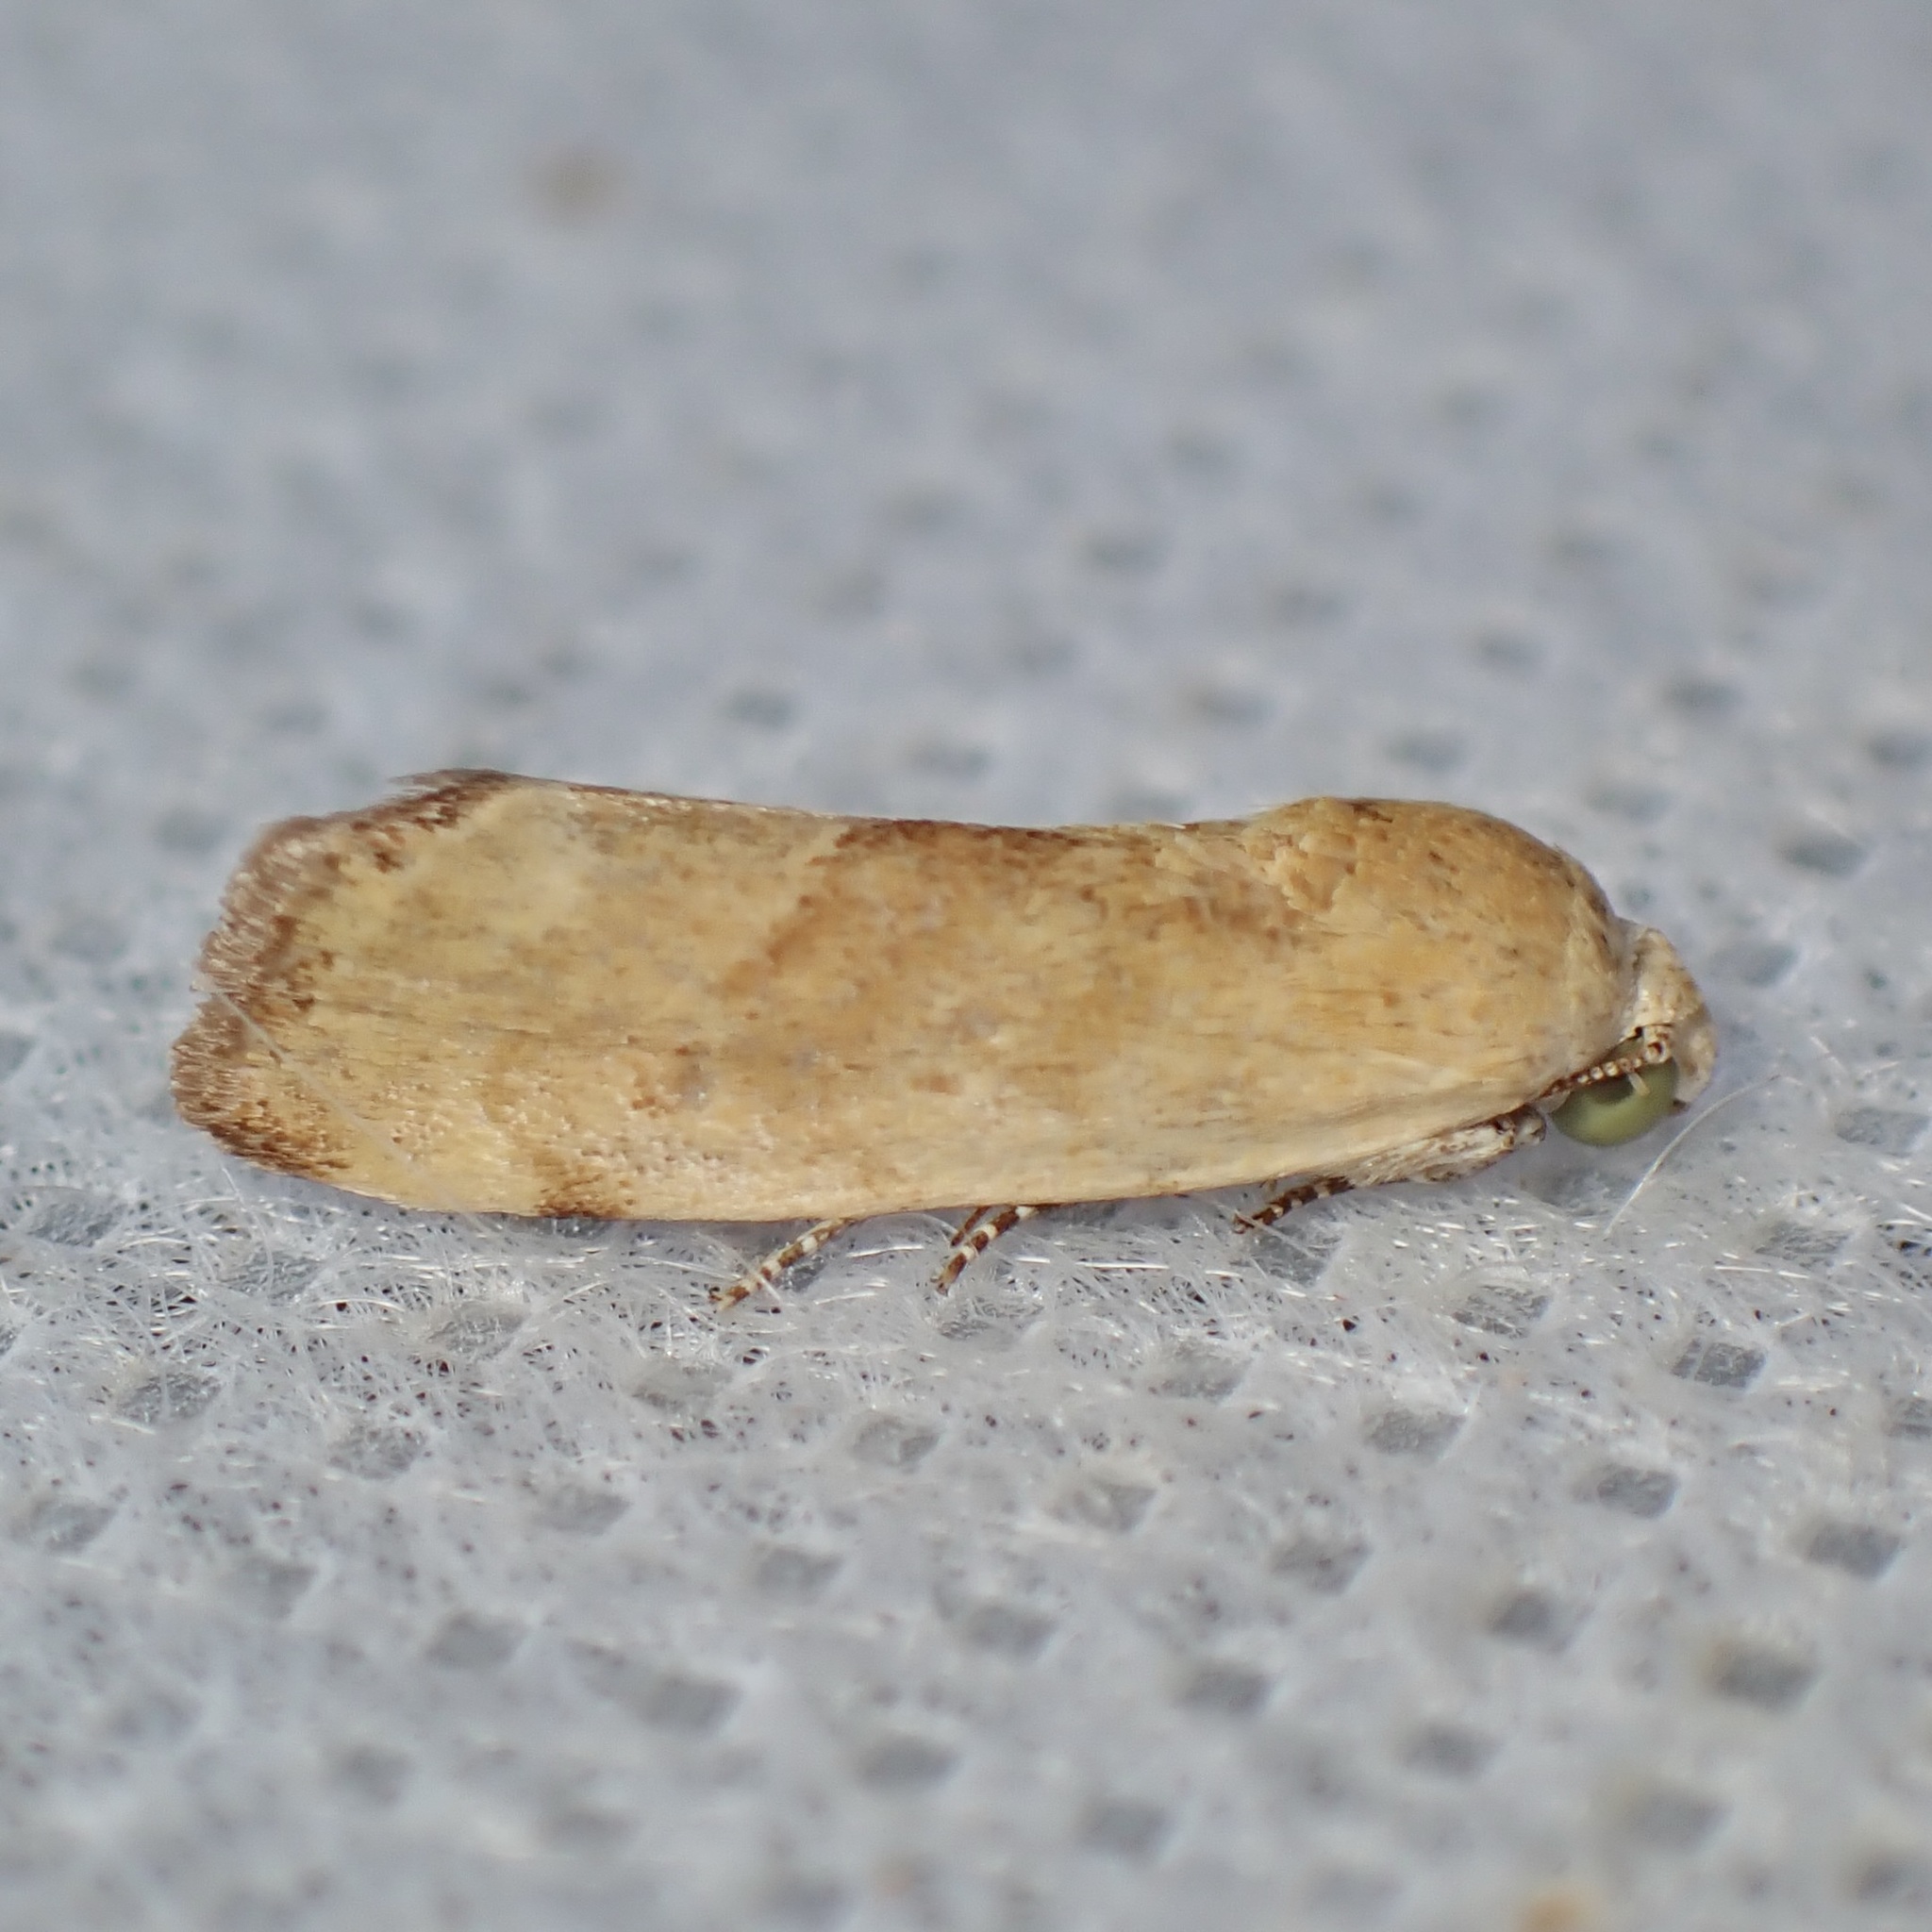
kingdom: Animalia
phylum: Arthropoda
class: Insecta
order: Lepidoptera
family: Noctuidae
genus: Acontia
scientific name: Acontia fasciatella
